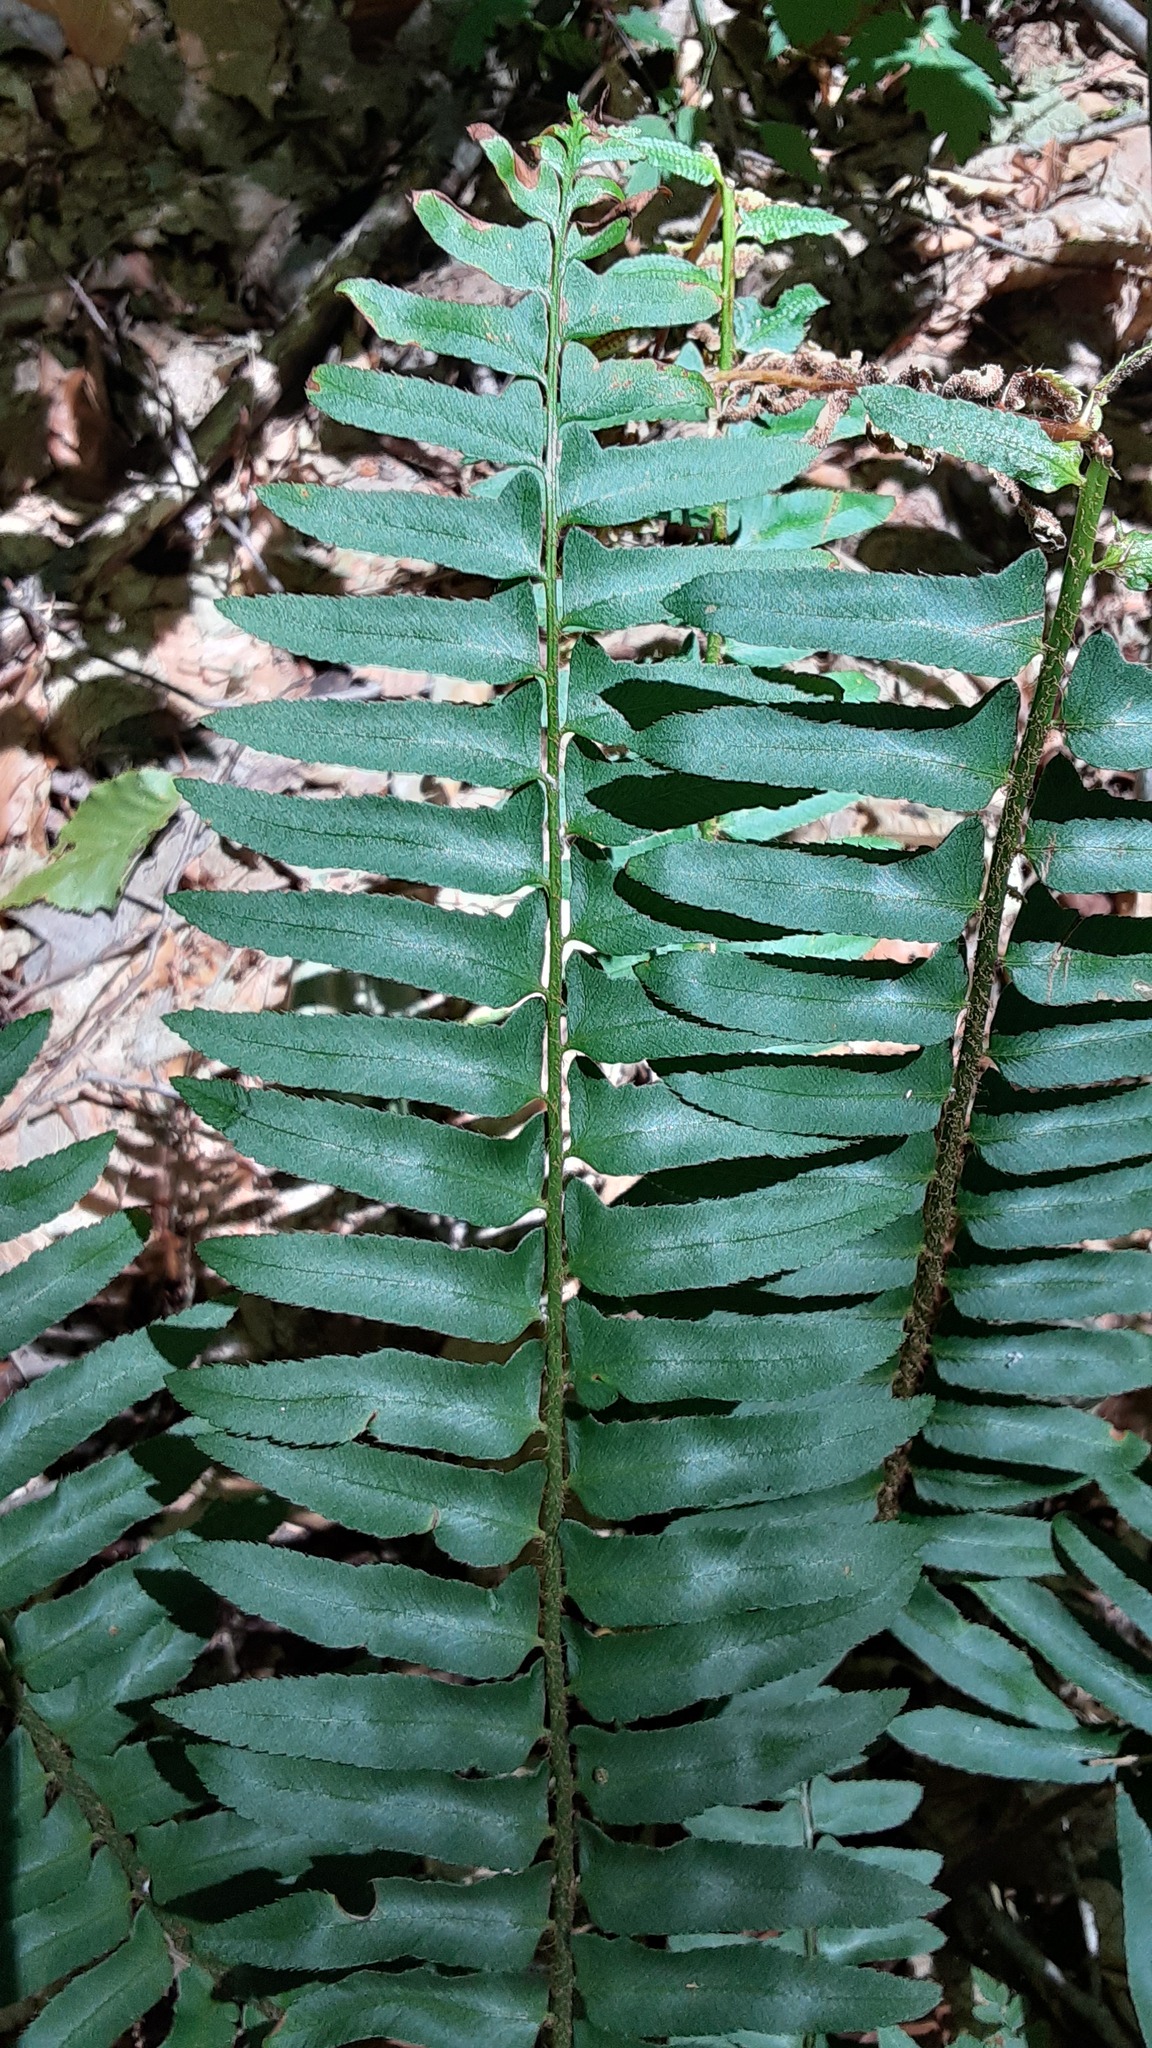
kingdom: Plantae
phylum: Tracheophyta
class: Polypodiopsida
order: Polypodiales
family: Dryopteridaceae
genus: Polystichum
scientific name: Polystichum acrostichoides
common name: Christmas fern
